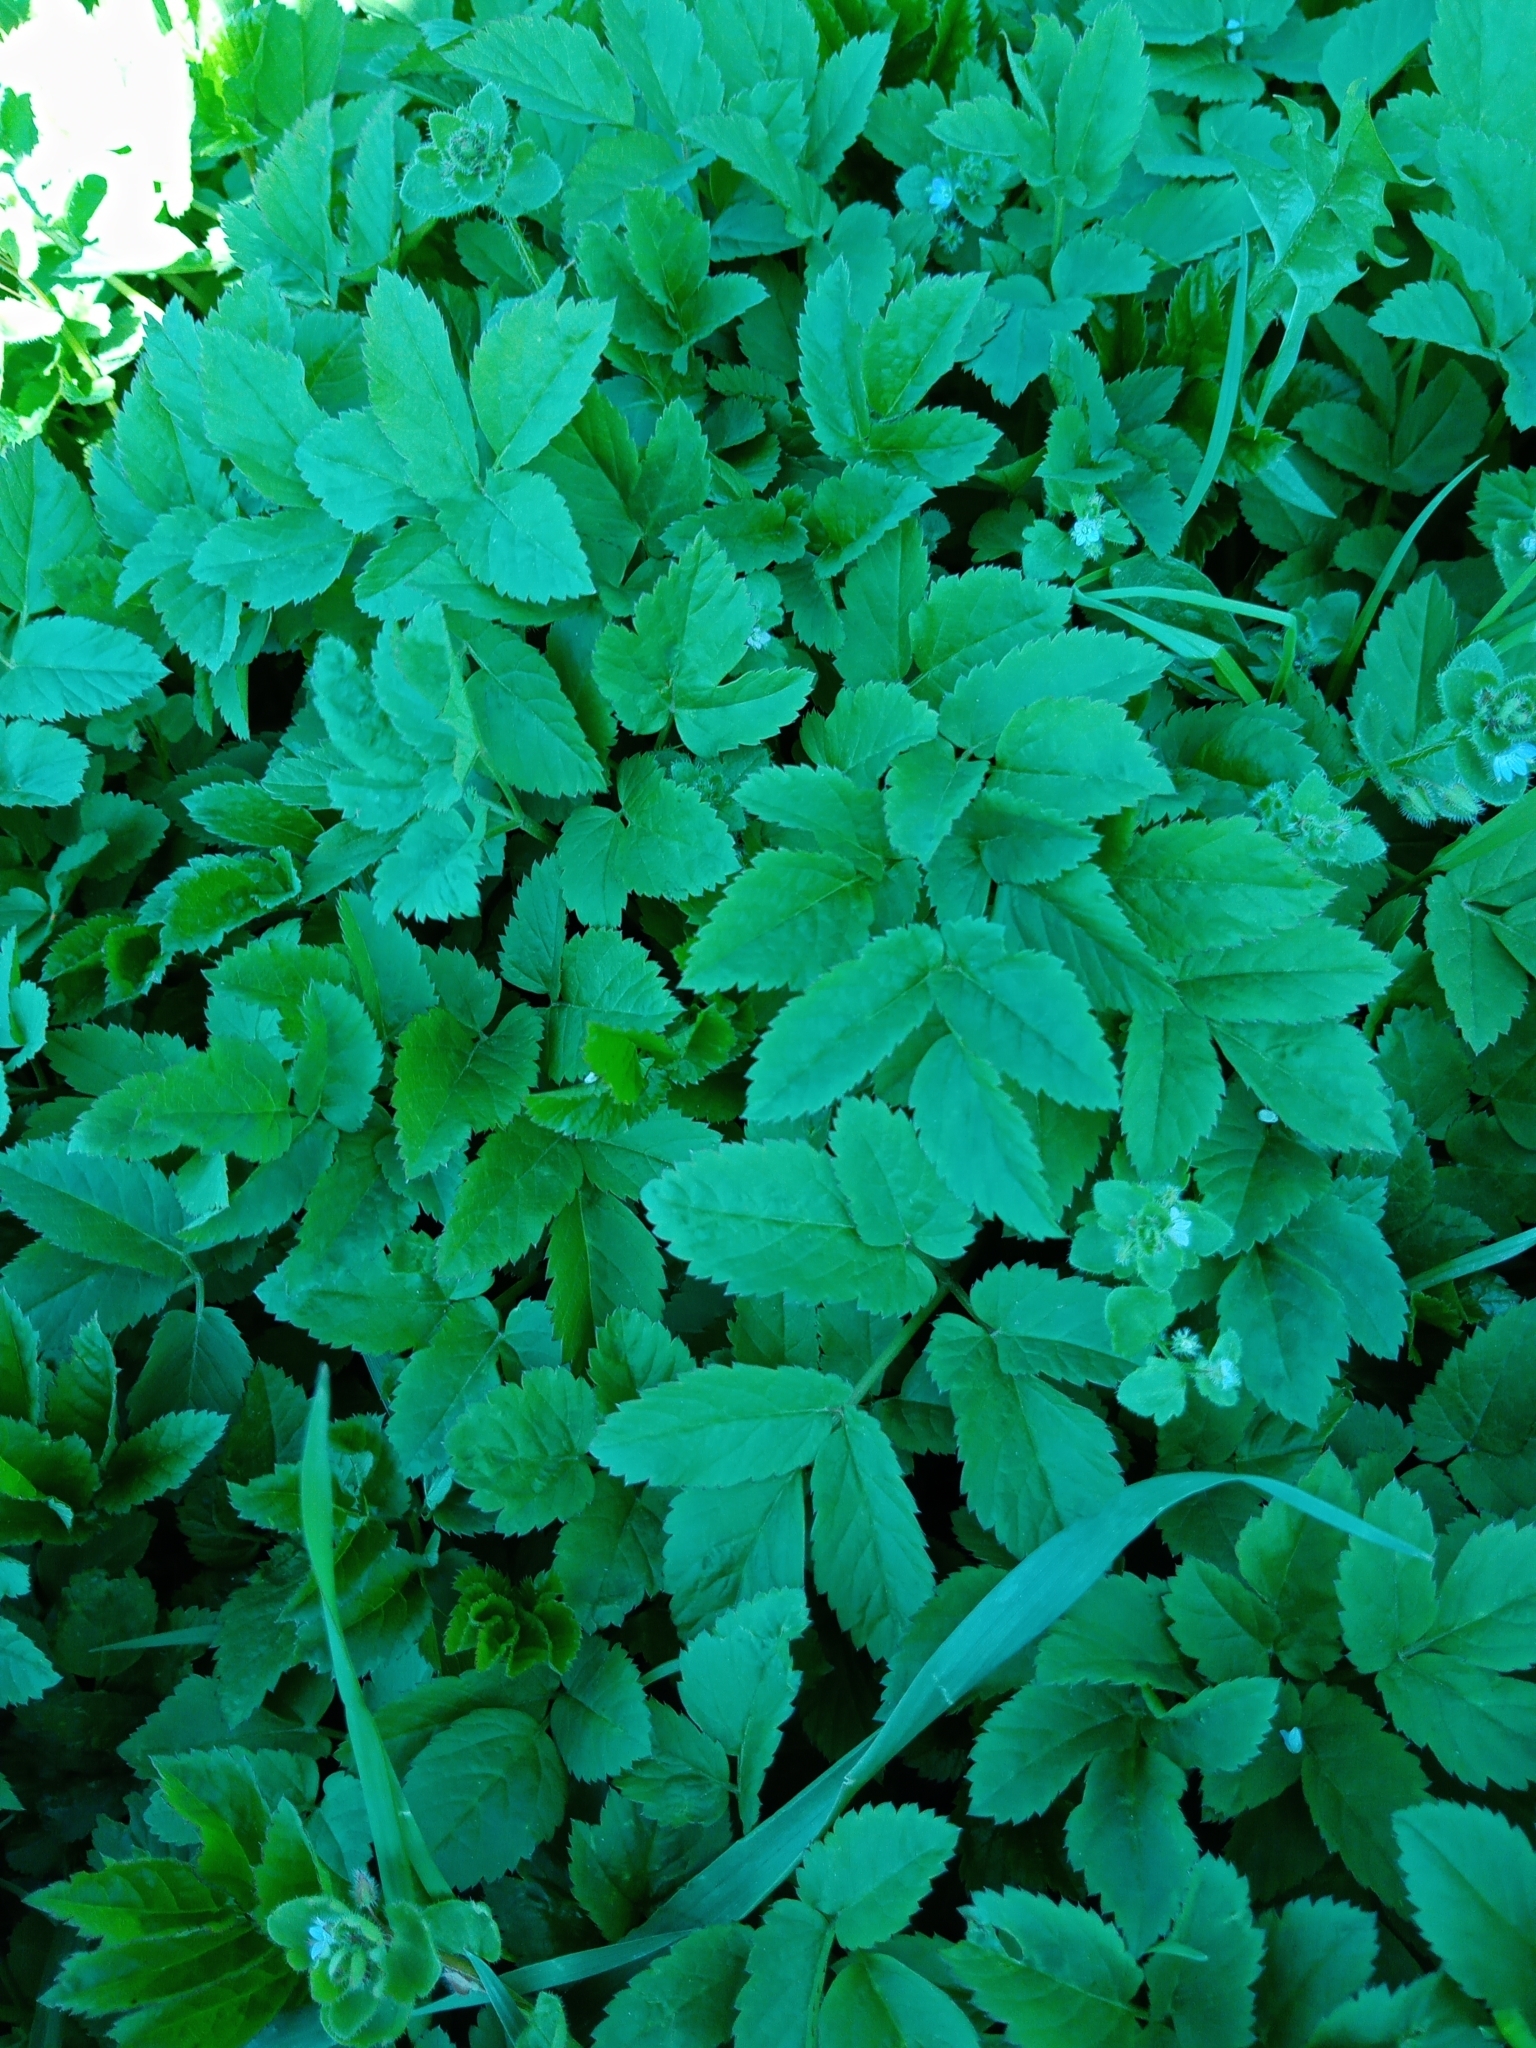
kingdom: Plantae
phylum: Tracheophyta
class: Magnoliopsida
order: Apiales
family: Apiaceae
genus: Aegopodium
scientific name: Aegopodium podagraria
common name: Ground-elder
